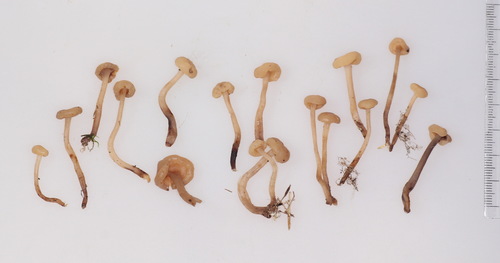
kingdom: Fungi
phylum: Ascomycota
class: Leotiomycetes
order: Rhytismatales
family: Cudoniaceae
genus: Cudonia
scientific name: Cudonia circinans
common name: Redleg jellybaby
